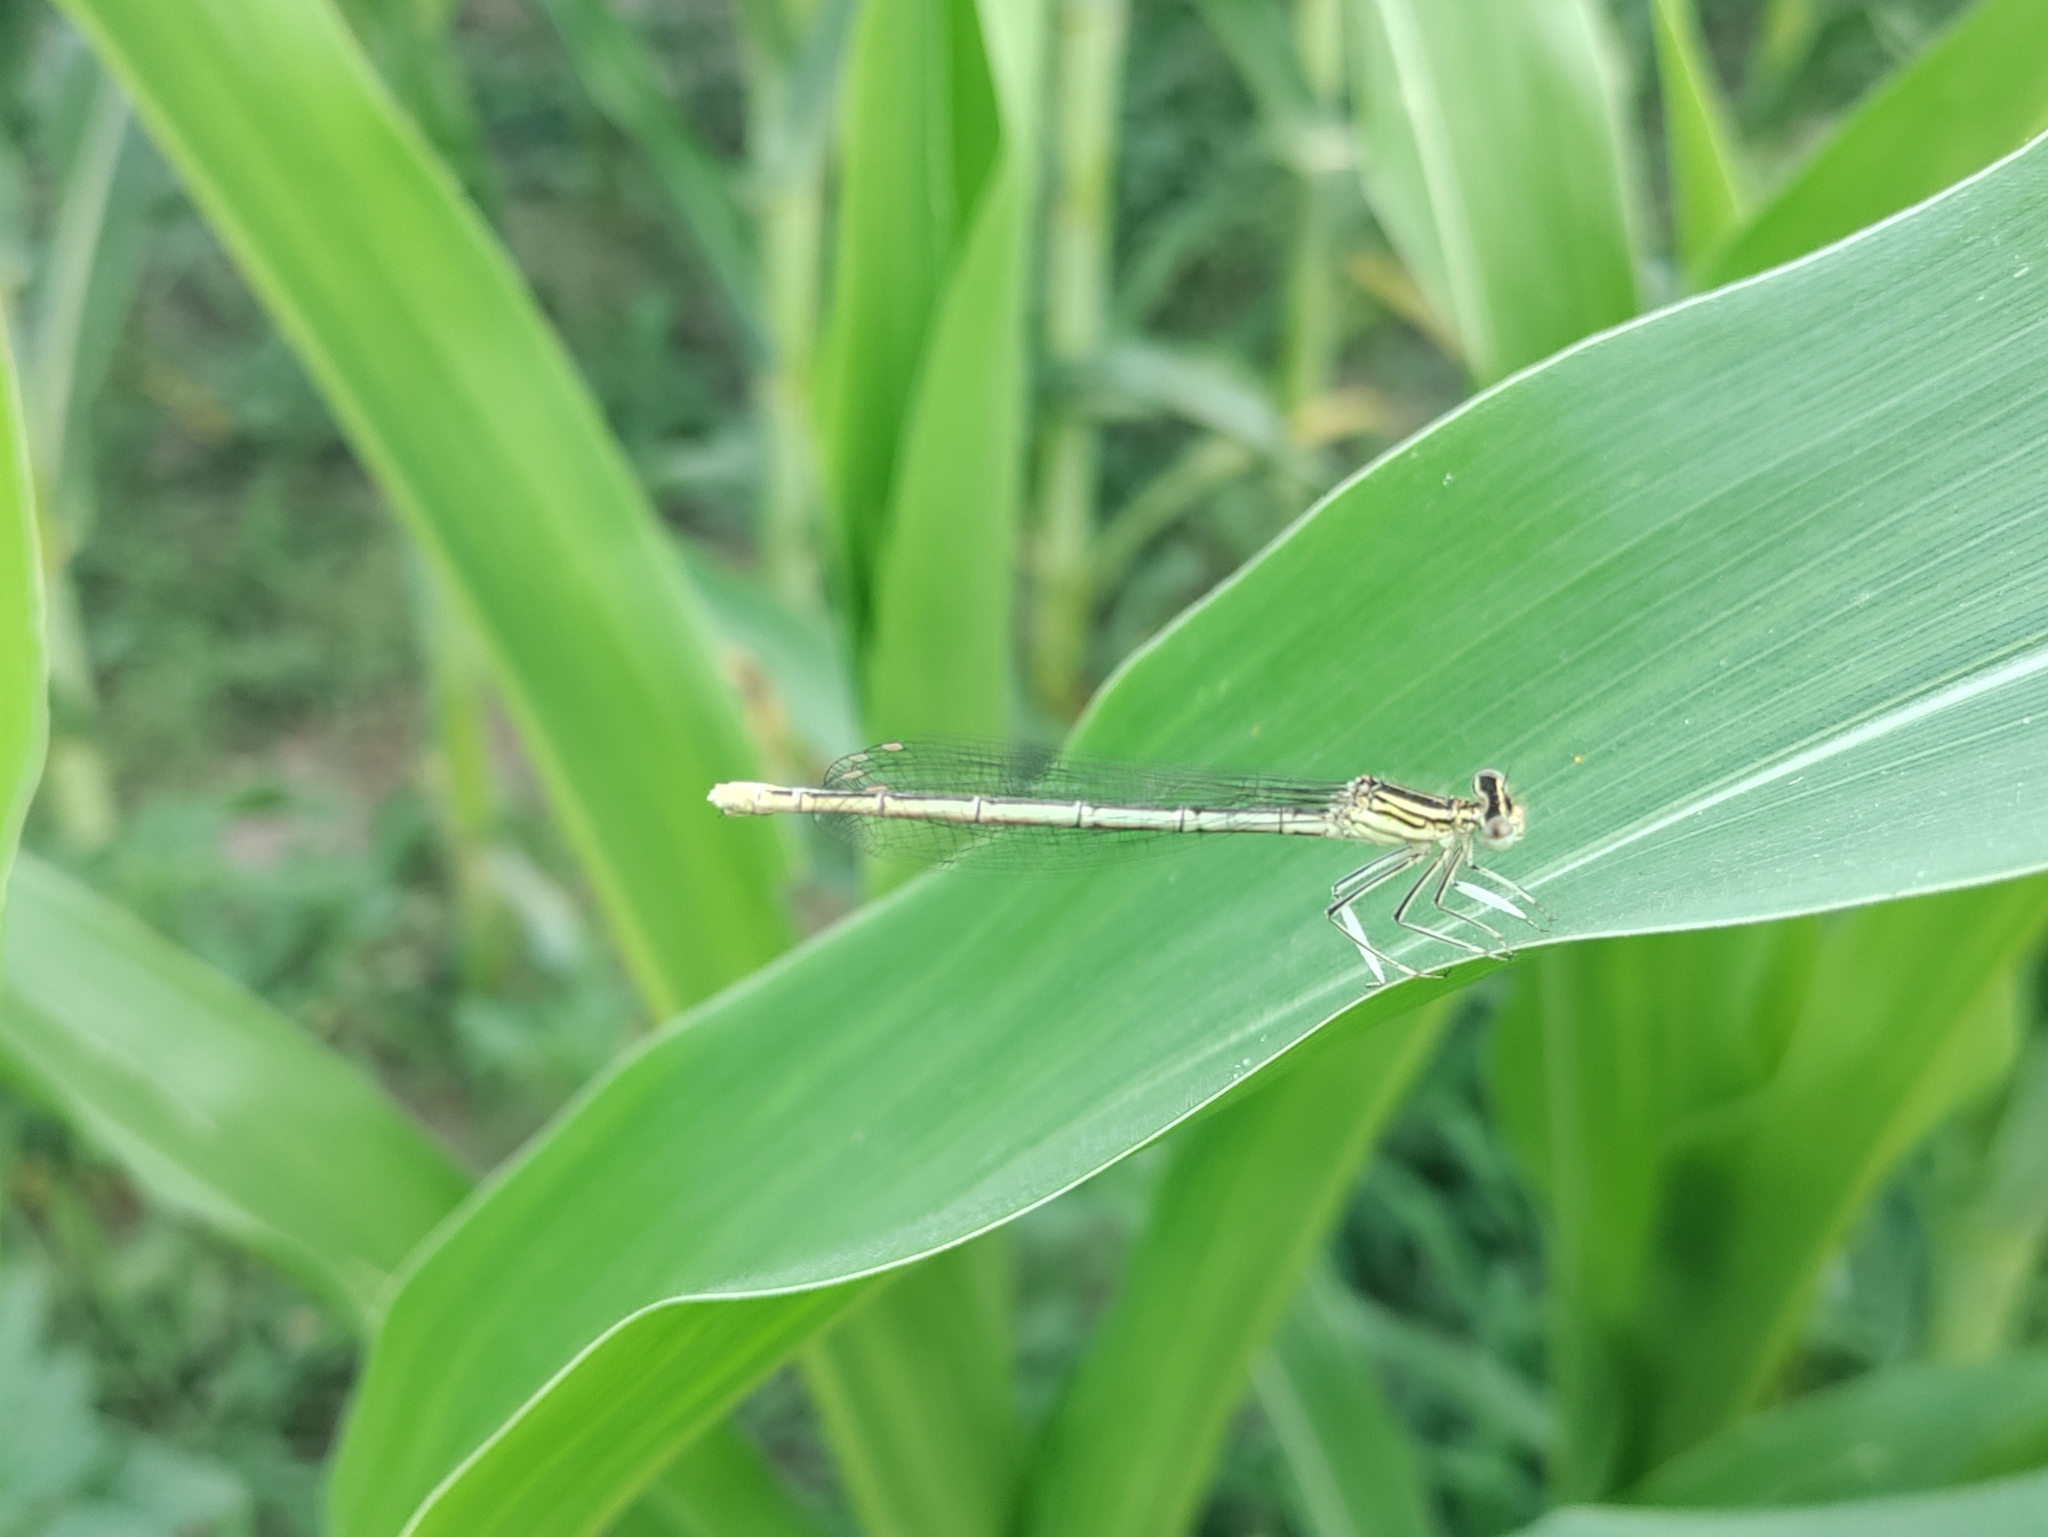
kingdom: Animalia
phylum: Arthropoda
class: Insecta
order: Odonata
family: Platycnemididae
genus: Platycnemis
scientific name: Platycnemis pennipes
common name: White-legged damselfly
